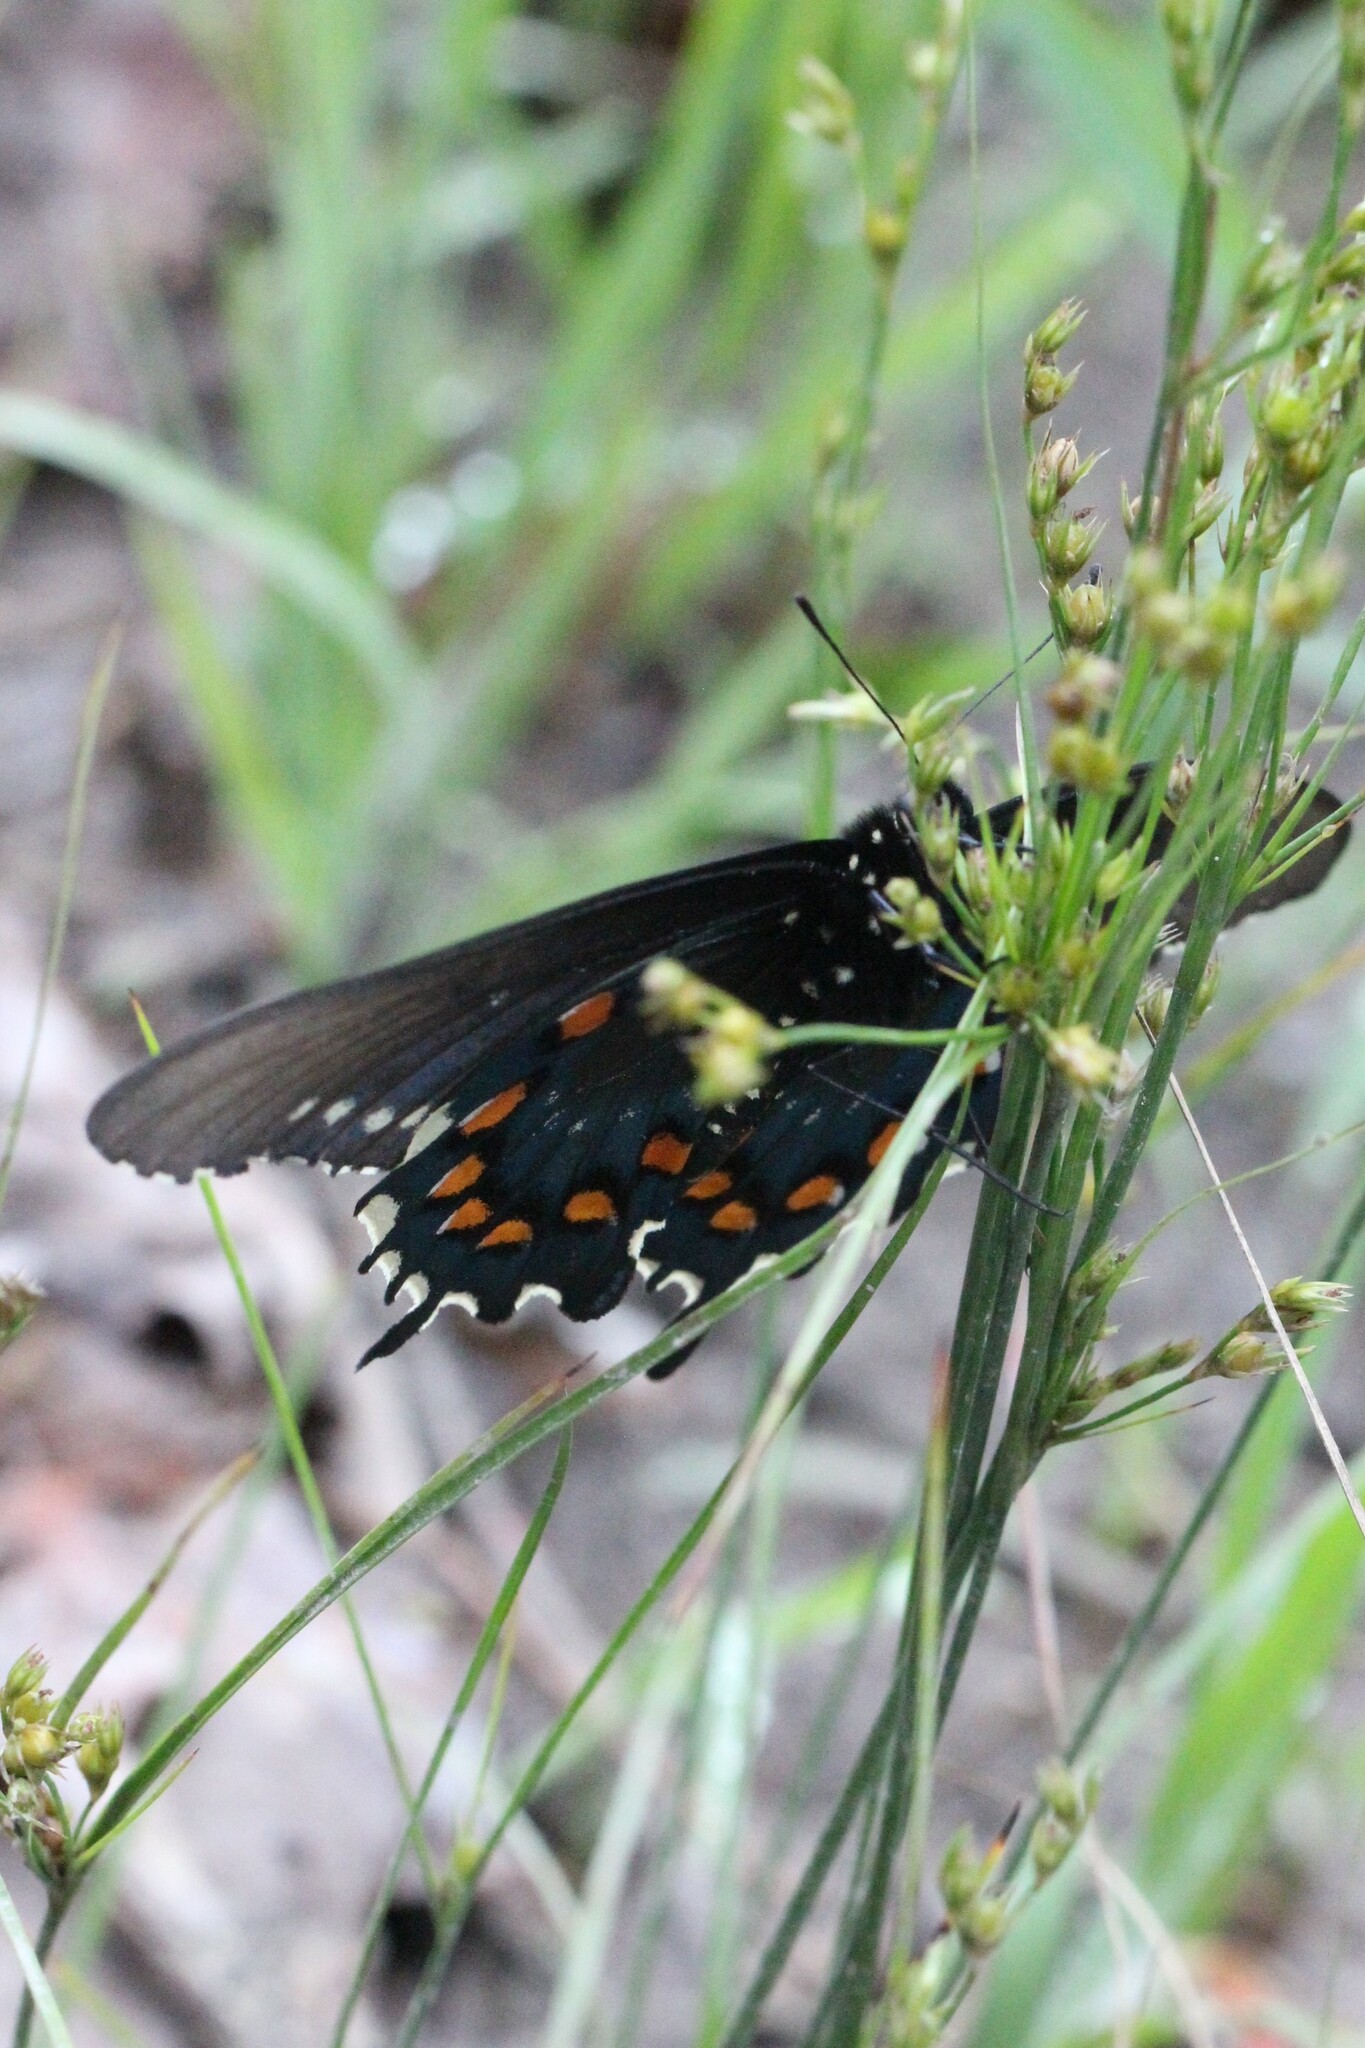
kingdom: Animalia
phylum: Arthropoda
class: Insecta
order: Lepidoptera
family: Papilionidae
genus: Battus
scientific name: Battus philenor
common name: Pipevine swallowtail
